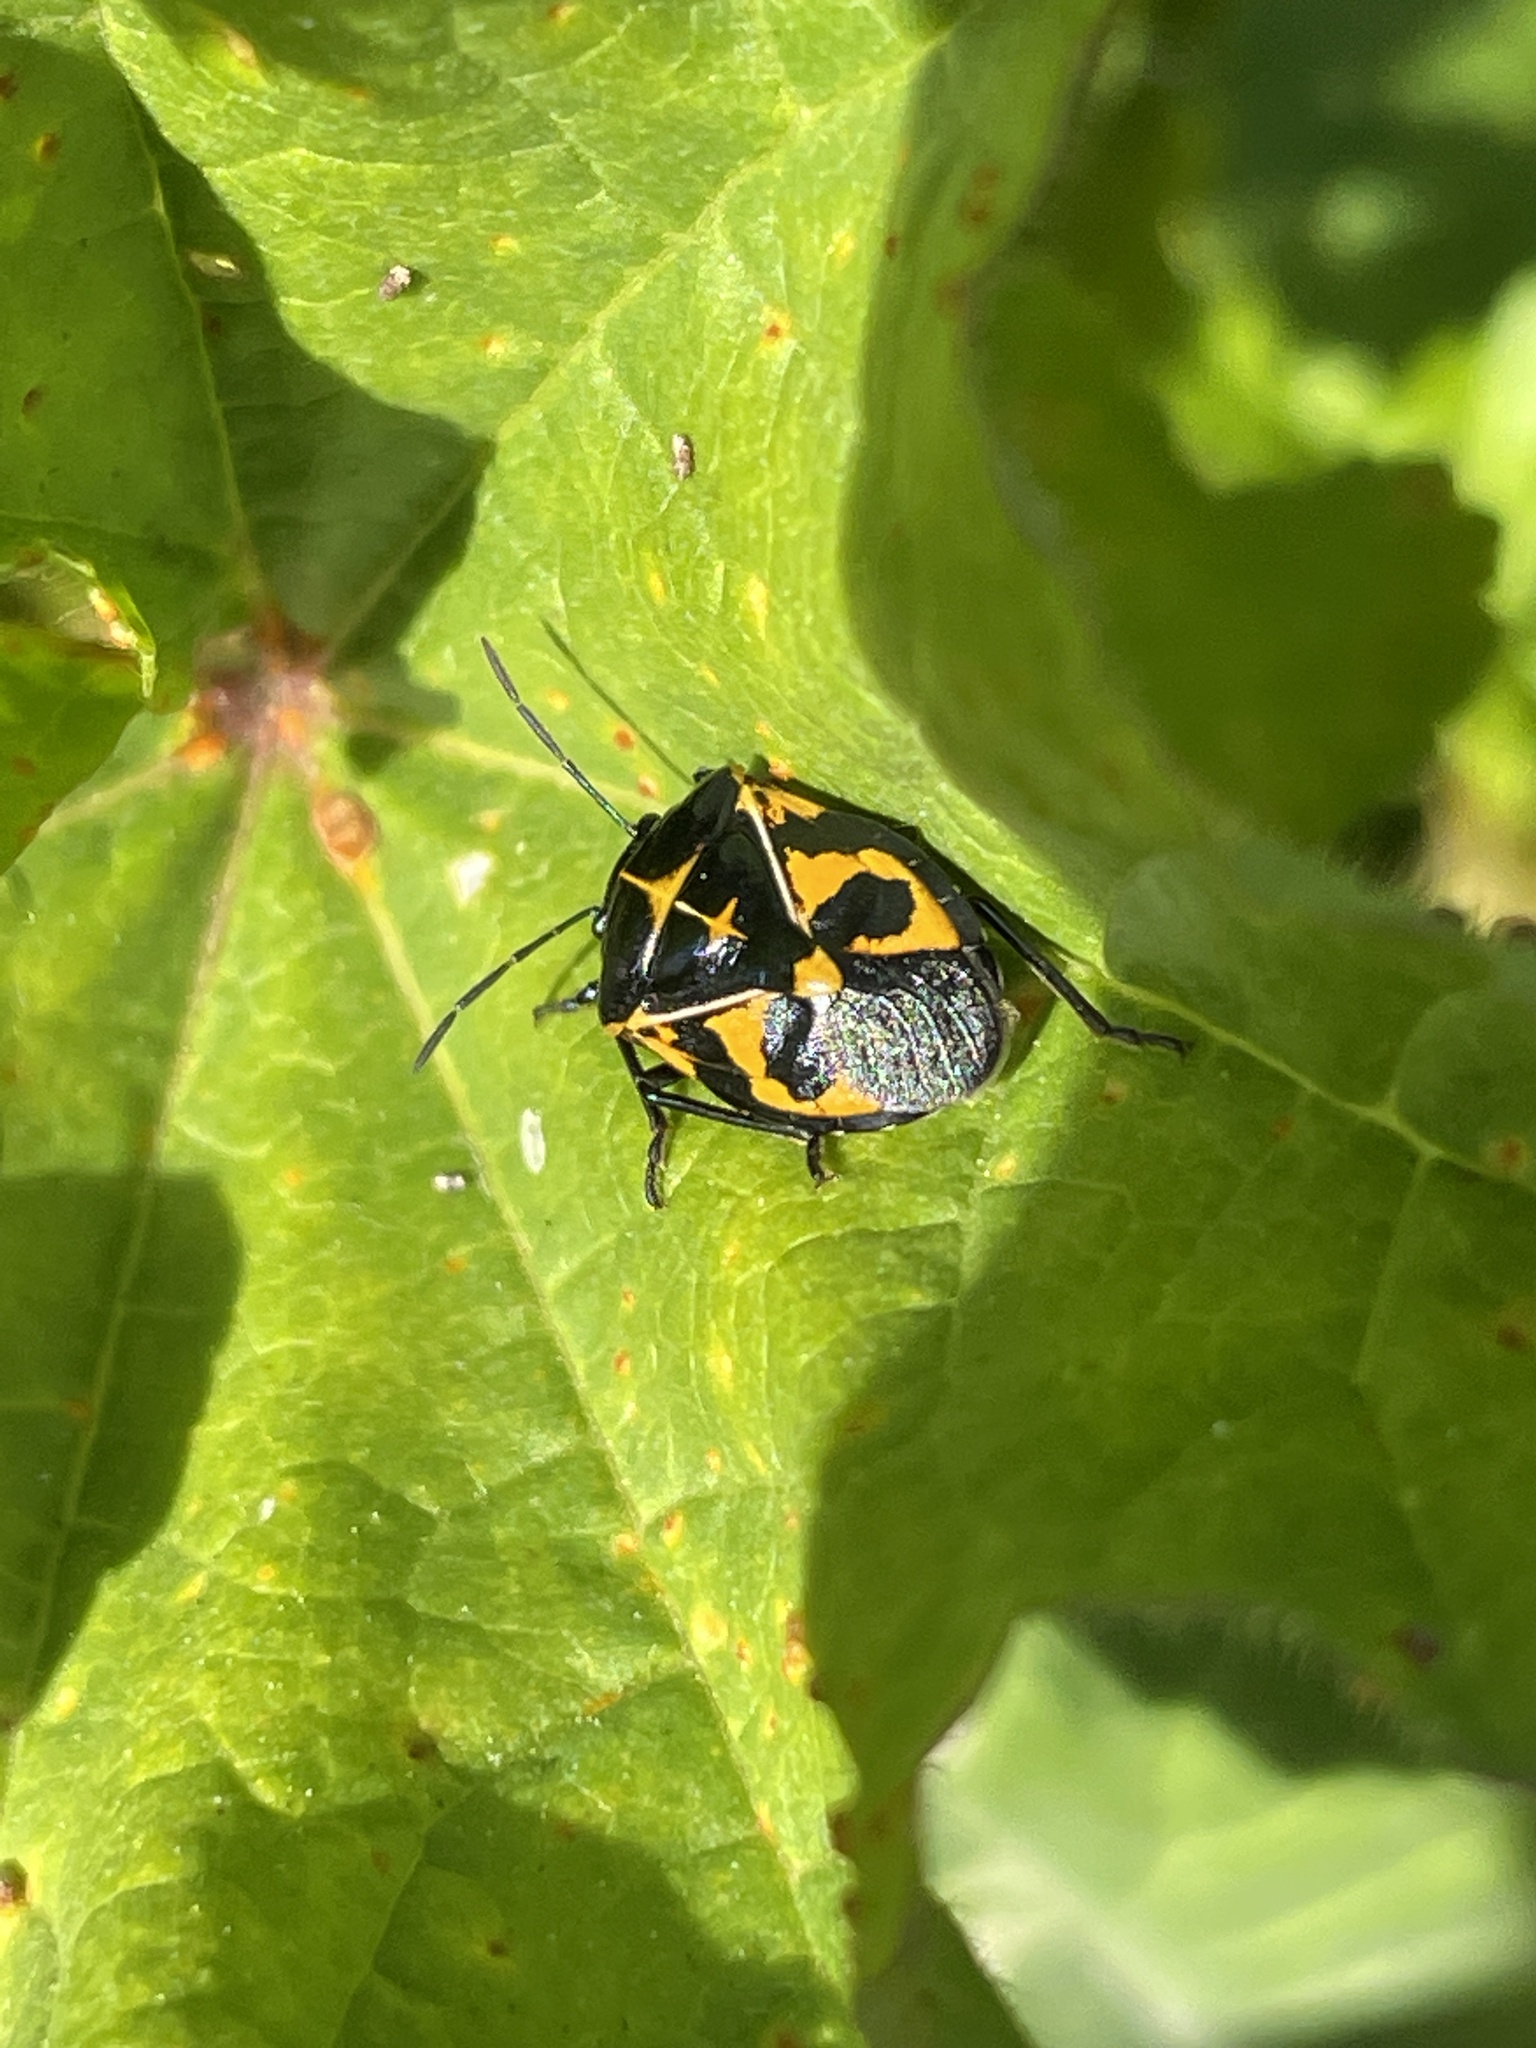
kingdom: Animalia
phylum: Arthropoda
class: Insecta
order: Hemiptera
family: Pentatomidae
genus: Murgantia
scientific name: Murgantia histrionica
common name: Harlequin bug
